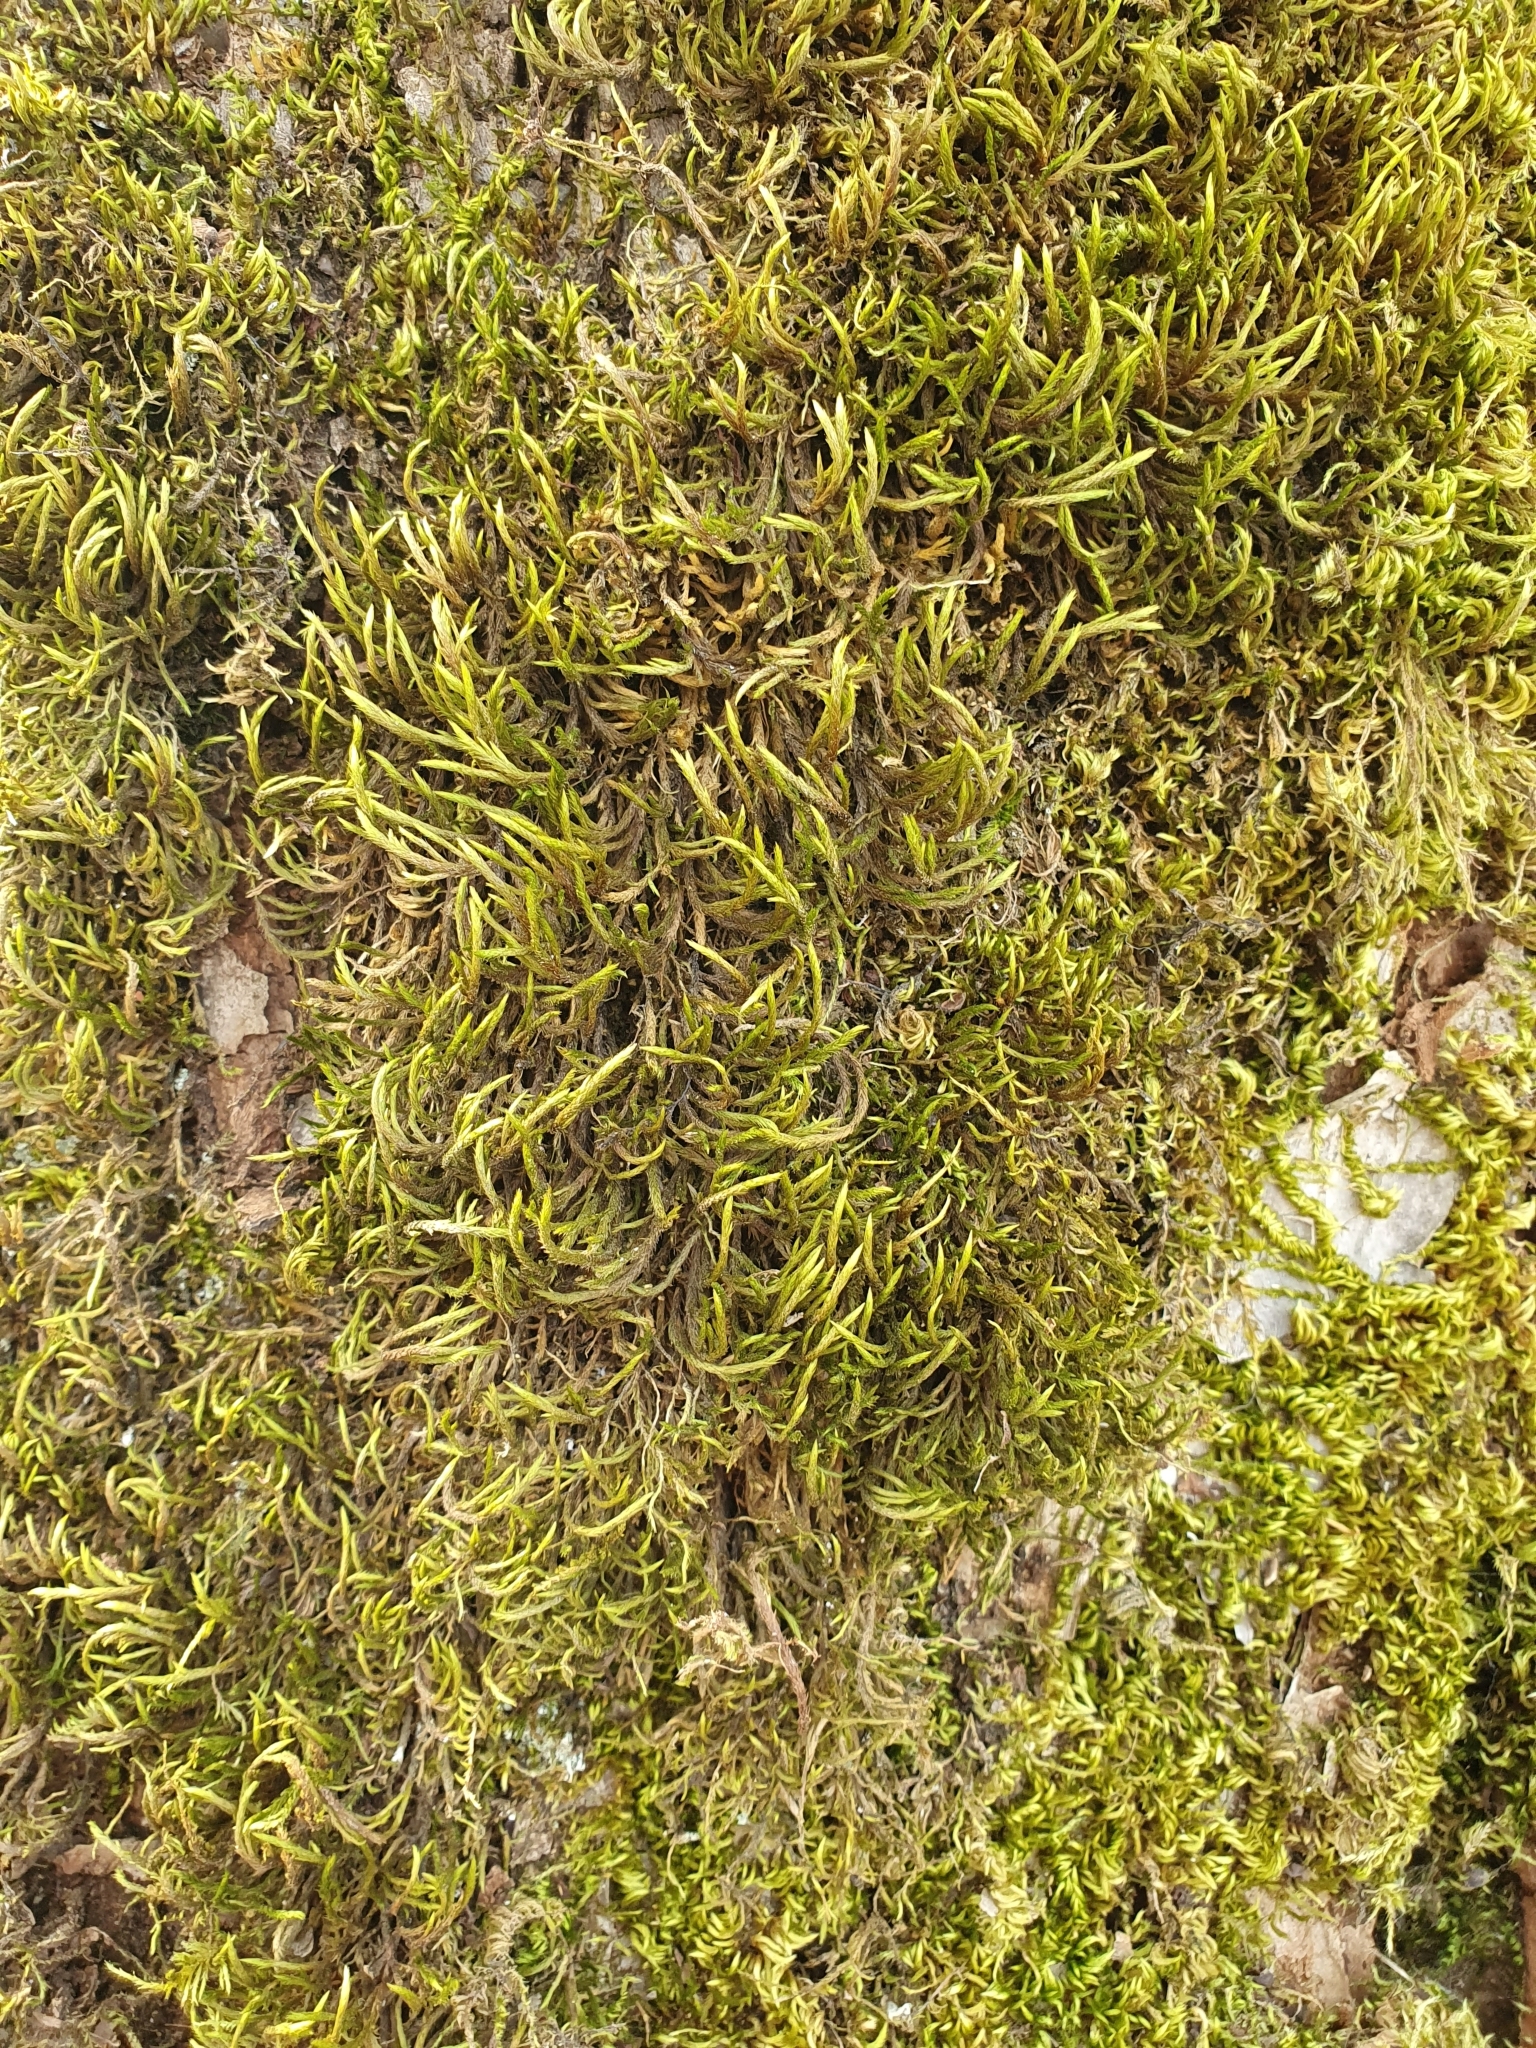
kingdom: Plantae
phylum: Bryophyta
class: Bryopsida
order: Hypnales
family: Leucodontaceae
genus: Leucodon
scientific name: Leucodon sciuroides
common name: Squirrel-tail moss
